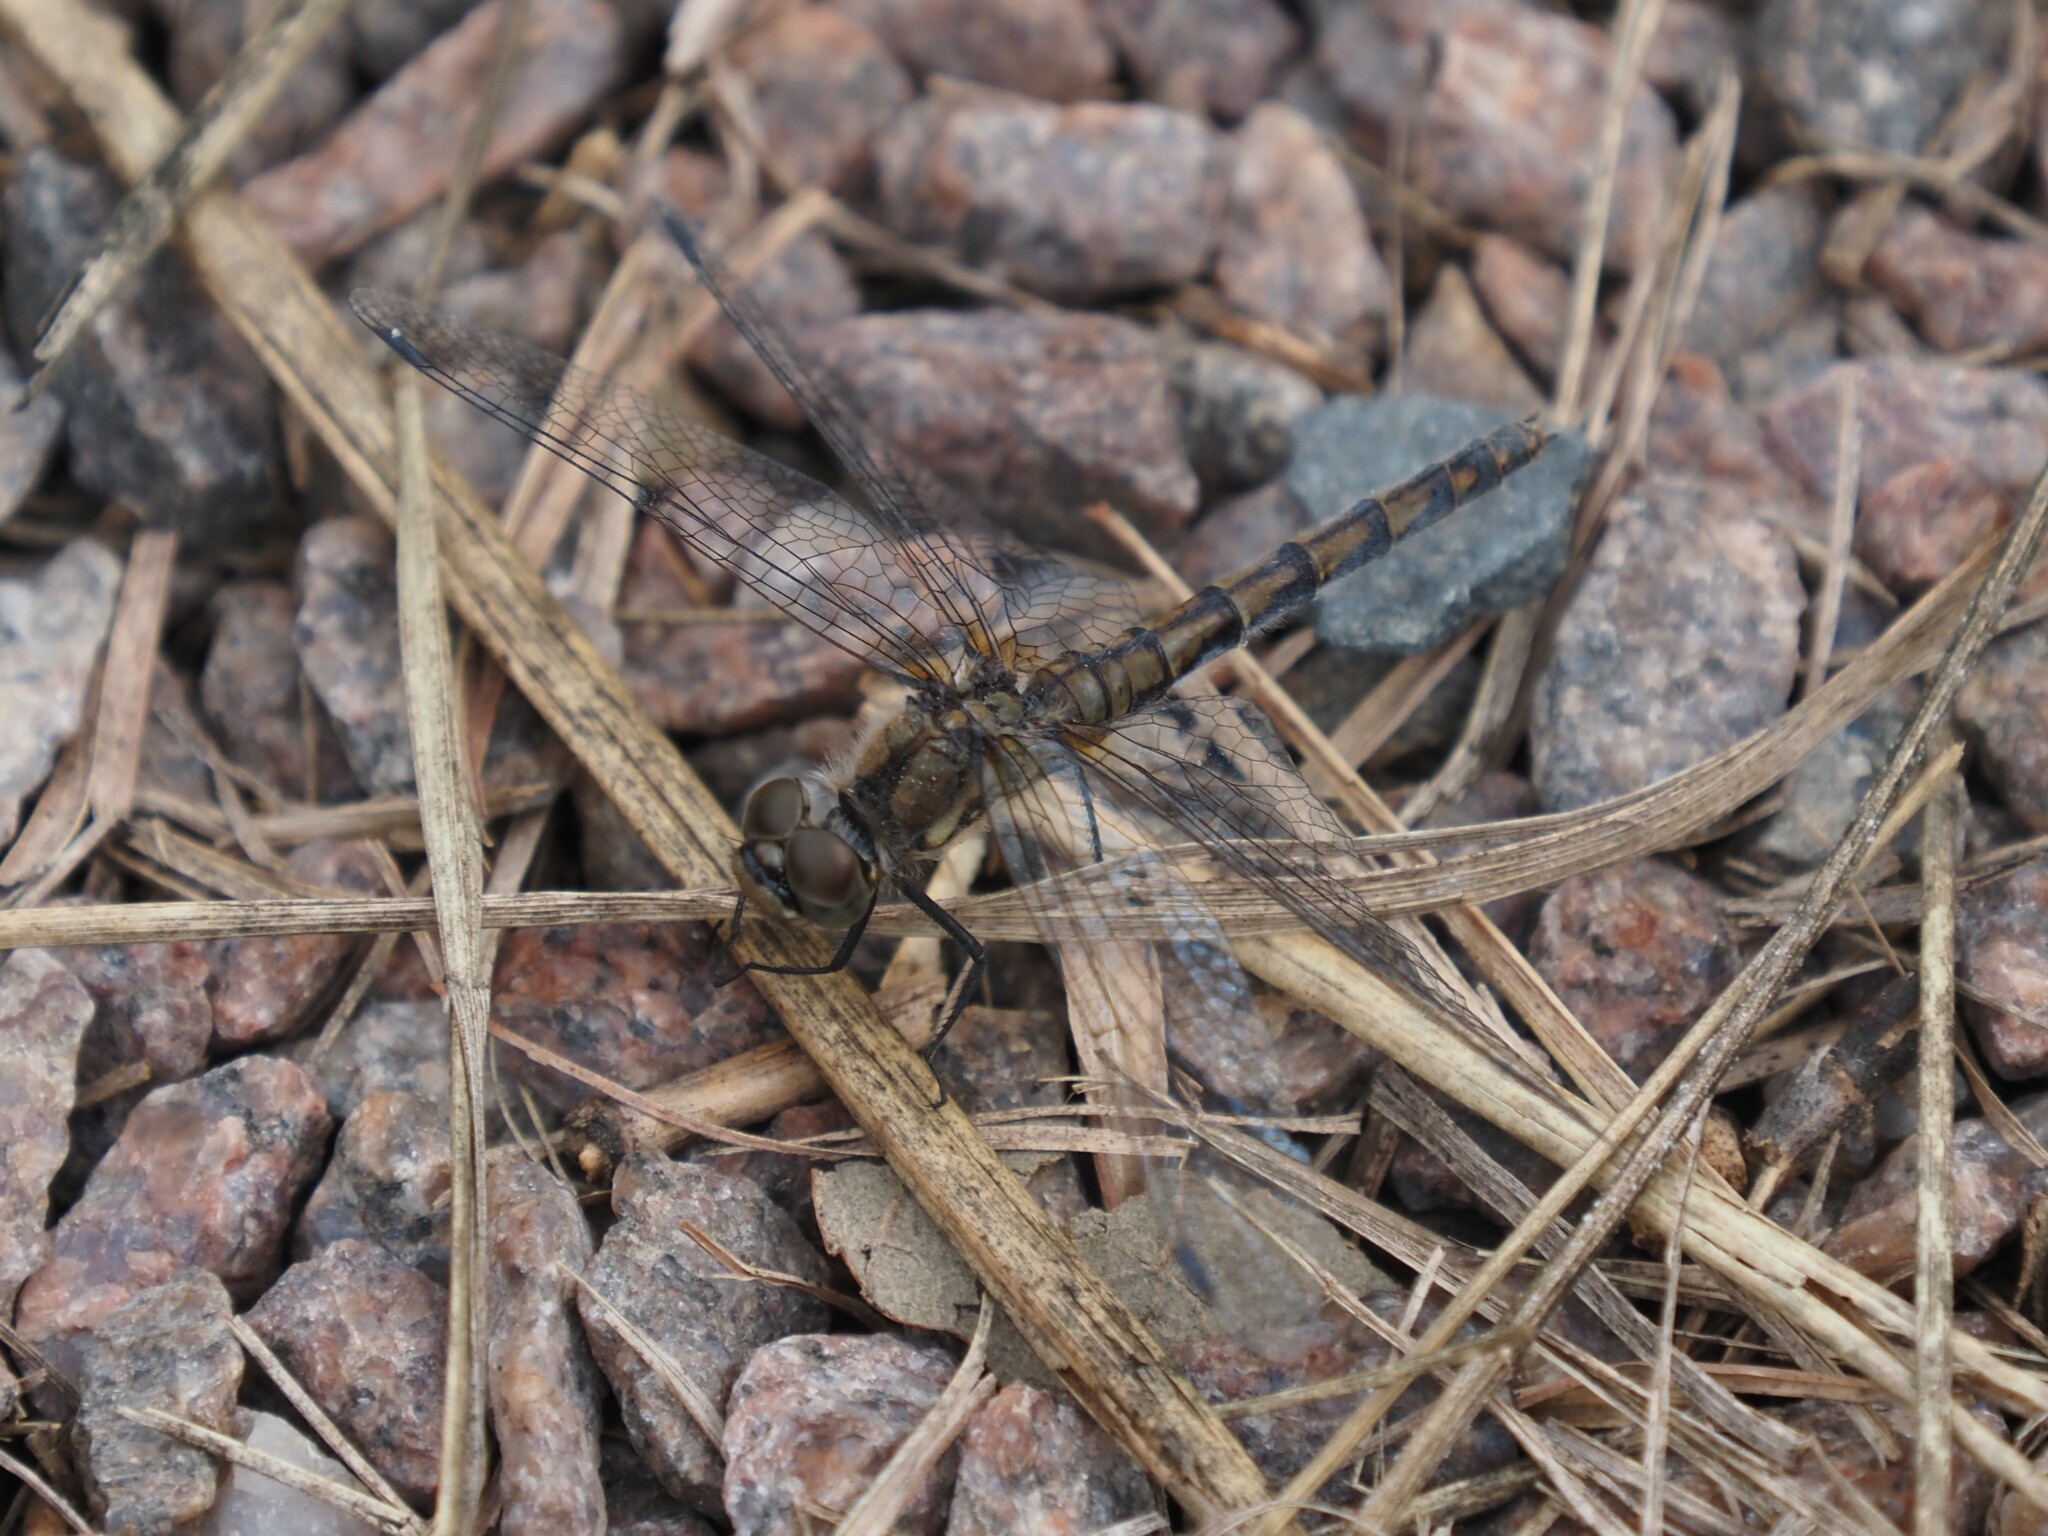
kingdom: Animalia
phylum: Arthropoda
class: Insecta
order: Odonata
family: Libellulidae
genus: Sympetrum
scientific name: Sympetrum danae
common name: Black darter
